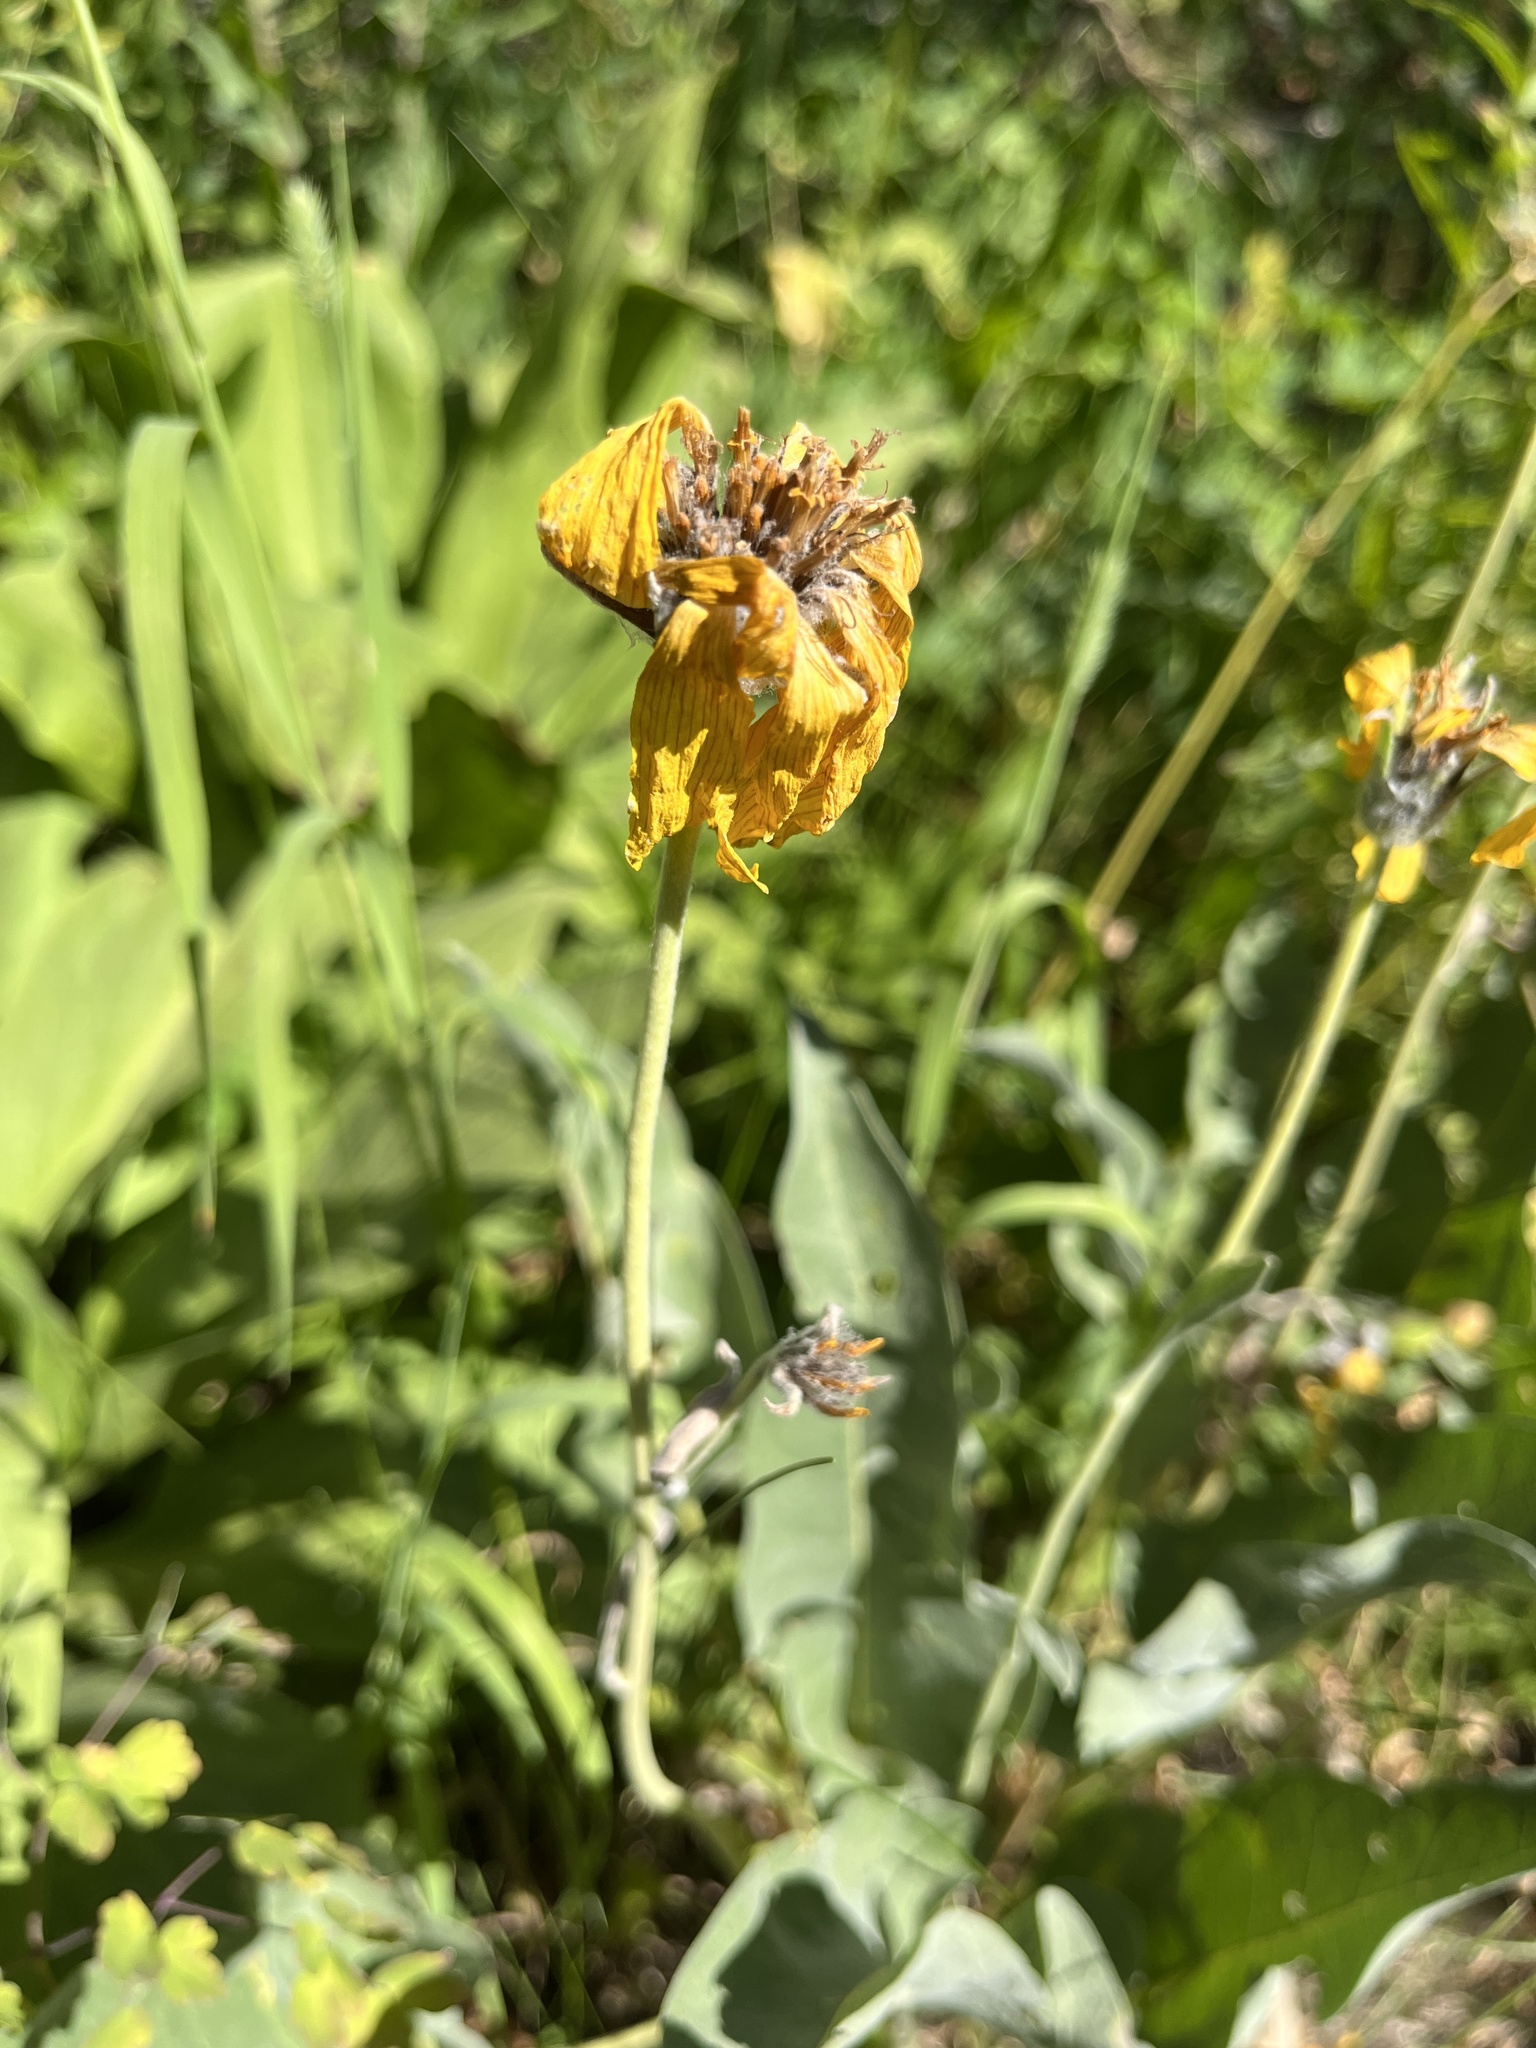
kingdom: Plantae
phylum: Tracheophyta
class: Magnoliopsida
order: Asterales
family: Asteraceae
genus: Wyethia
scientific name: Wyethia sagittata
